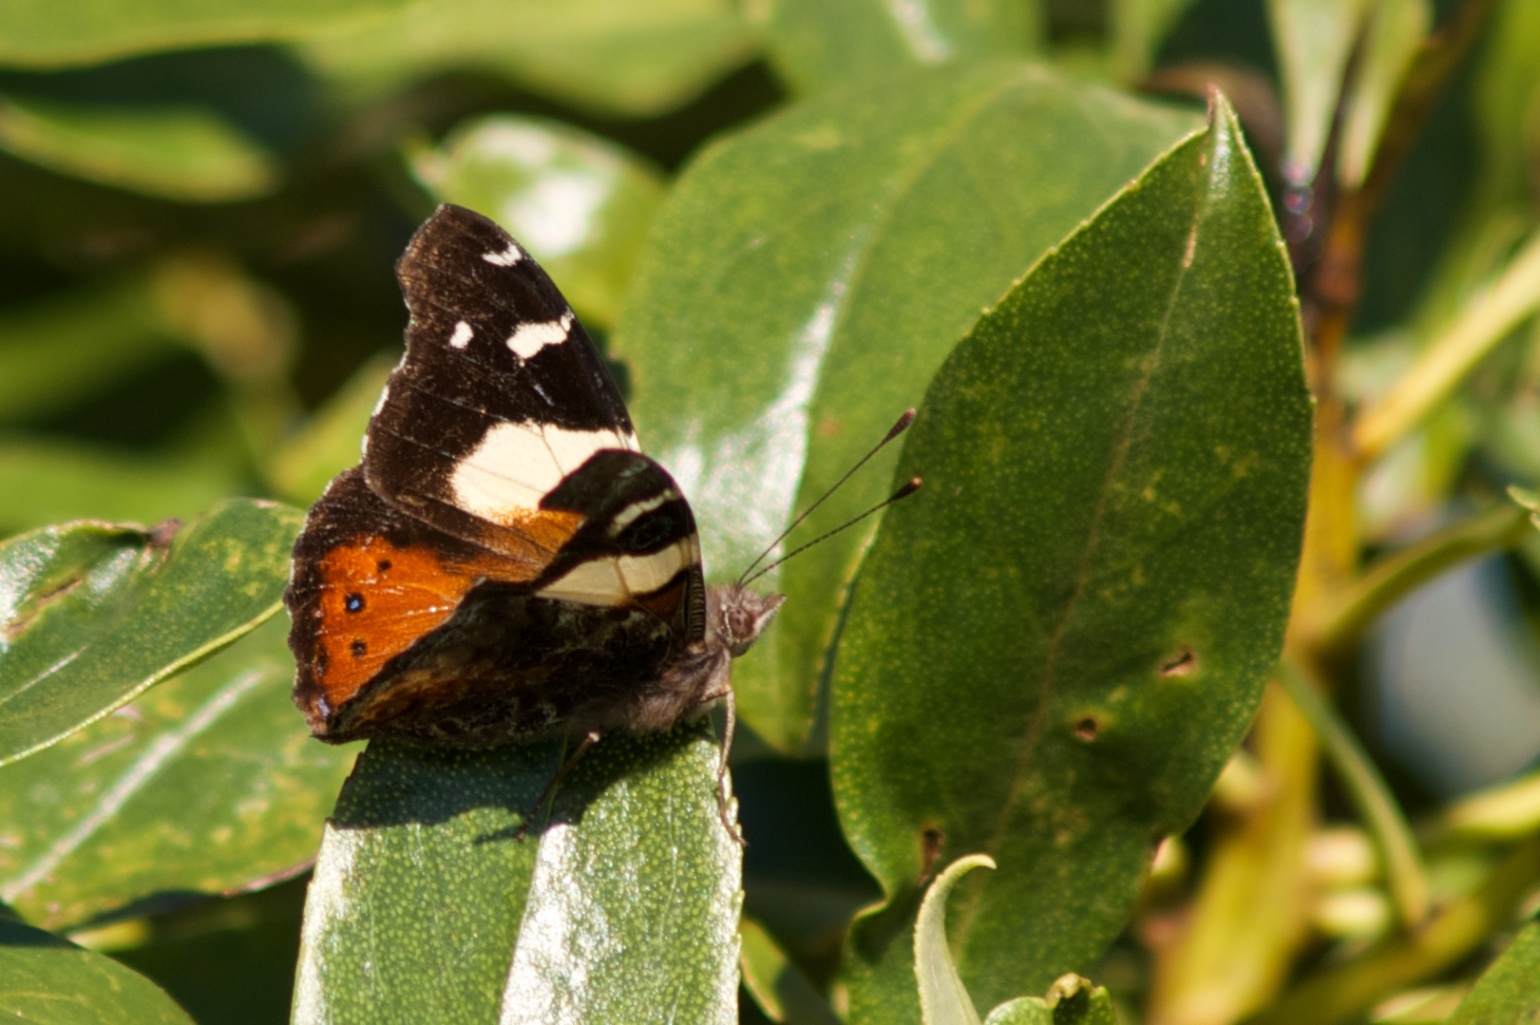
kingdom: Animalia
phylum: Arthropoda
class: Insecta
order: Lepidoptera
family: Nymphalidae
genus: Vanessa
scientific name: Vanessa itea
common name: Yellow admiral
